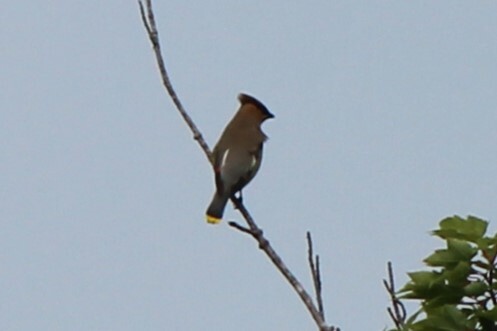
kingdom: Animalia
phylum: Chordata
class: Aves
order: Passeriformes
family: Bombycillidae
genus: Bombycilla
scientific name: Bombycilla cedrorum
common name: Cedar waxwing
